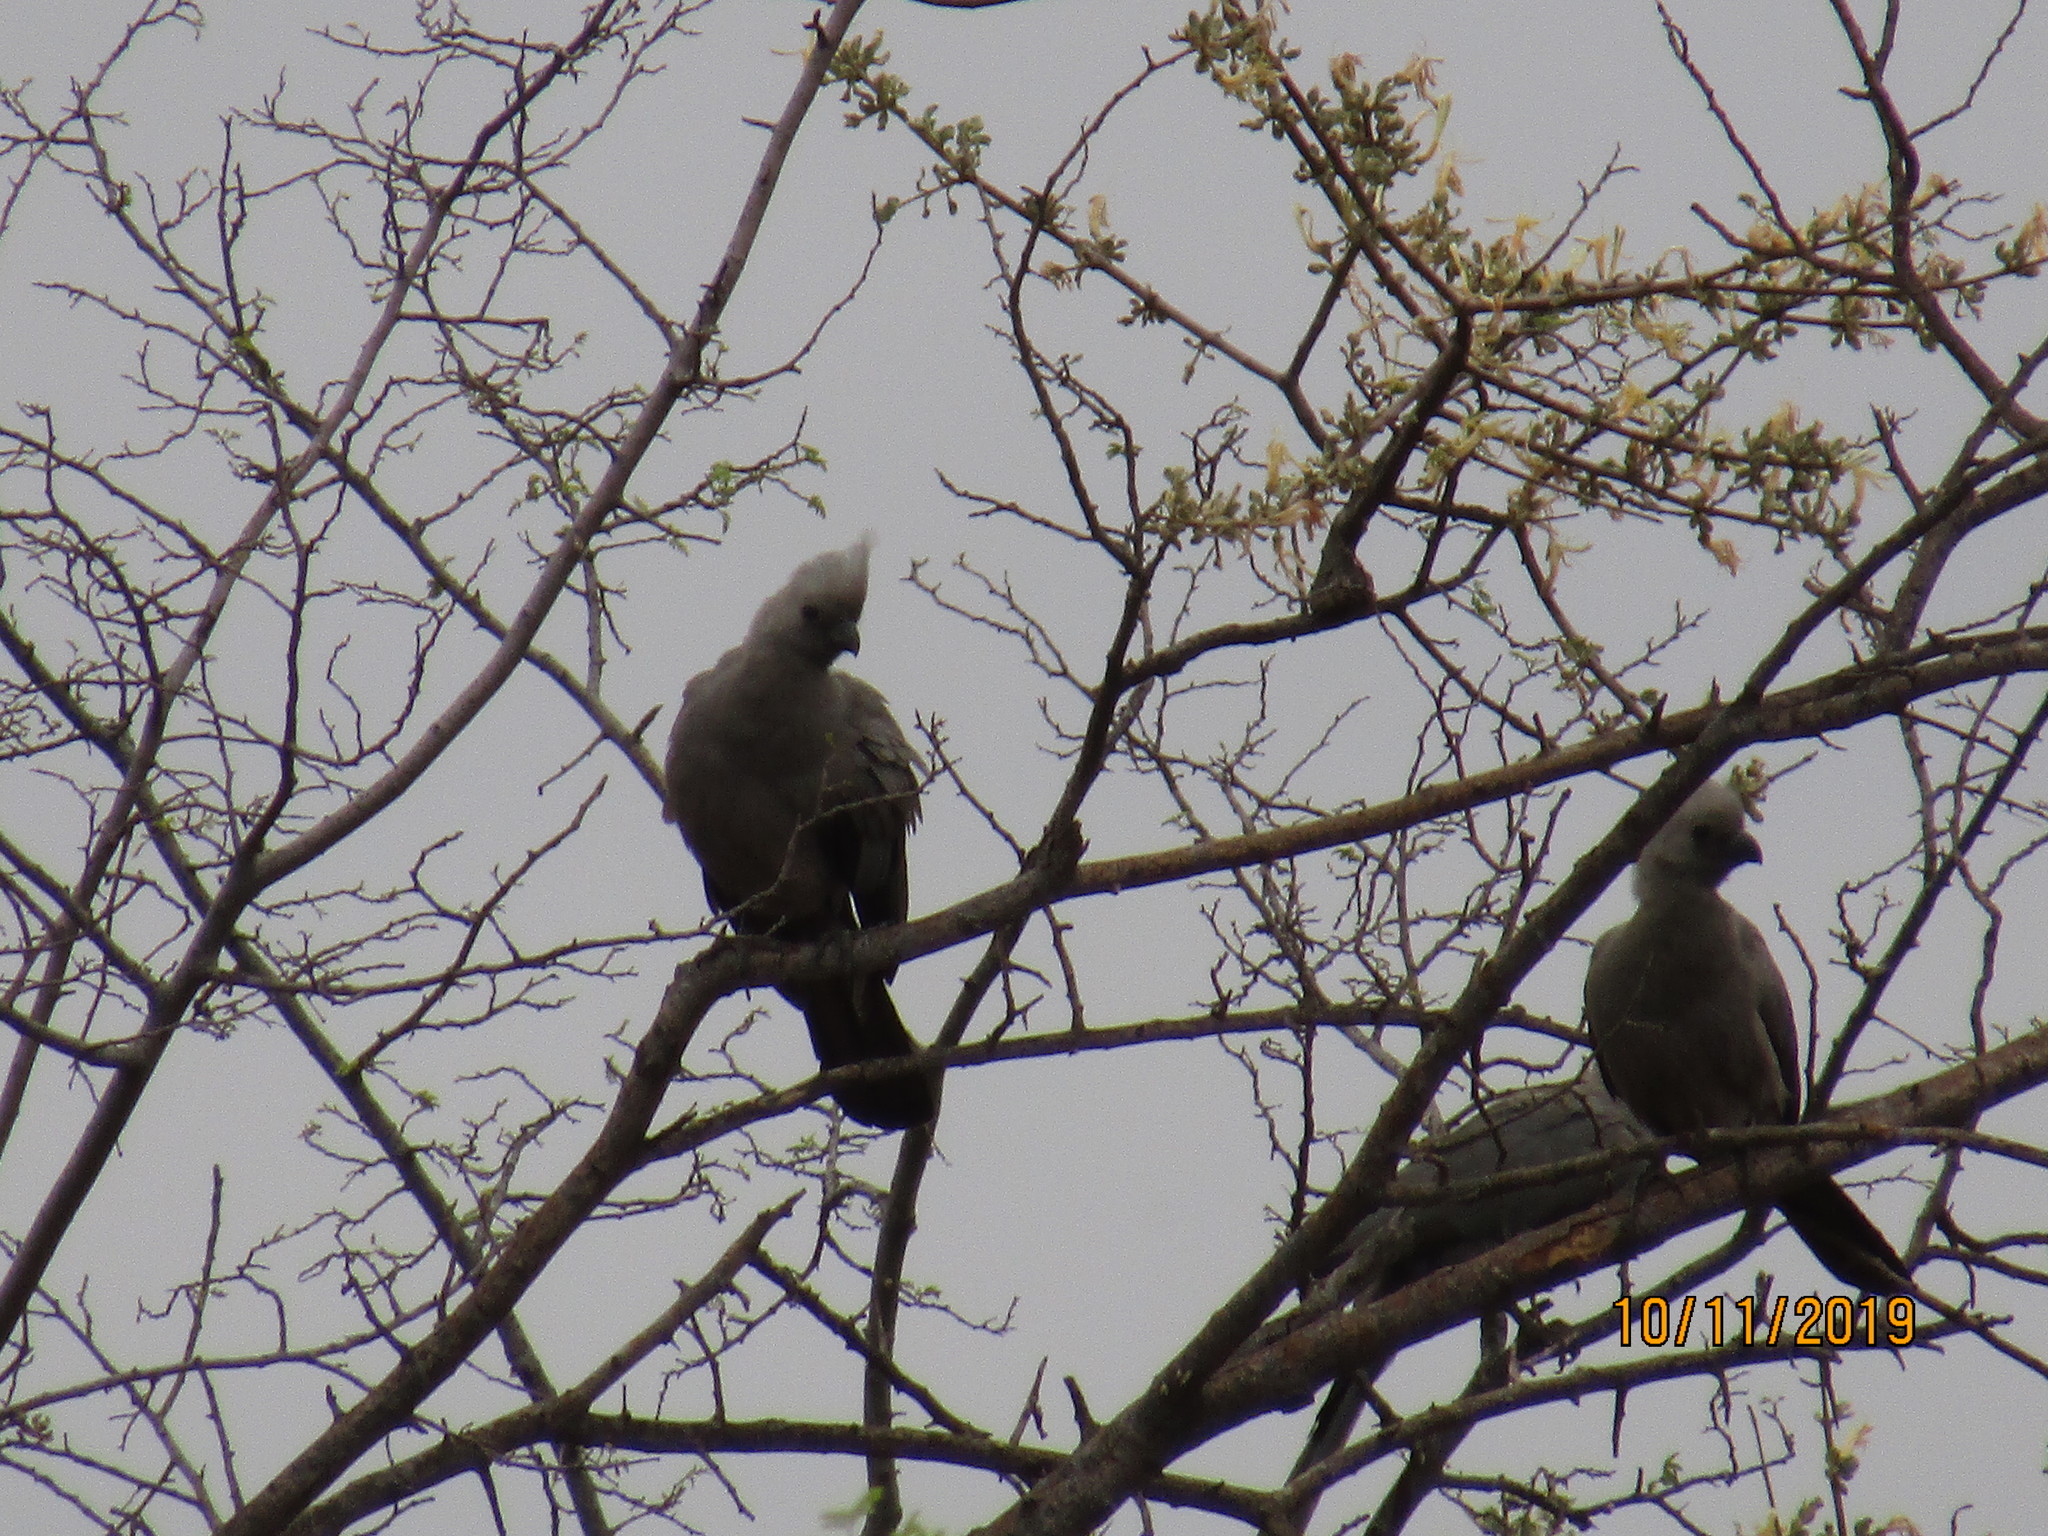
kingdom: Animalia
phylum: Chordata
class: Aves
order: Musophagiformes
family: Musophagidae
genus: Corythaixoides
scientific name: Corythaixoides concolor
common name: Grey go-away-bird
